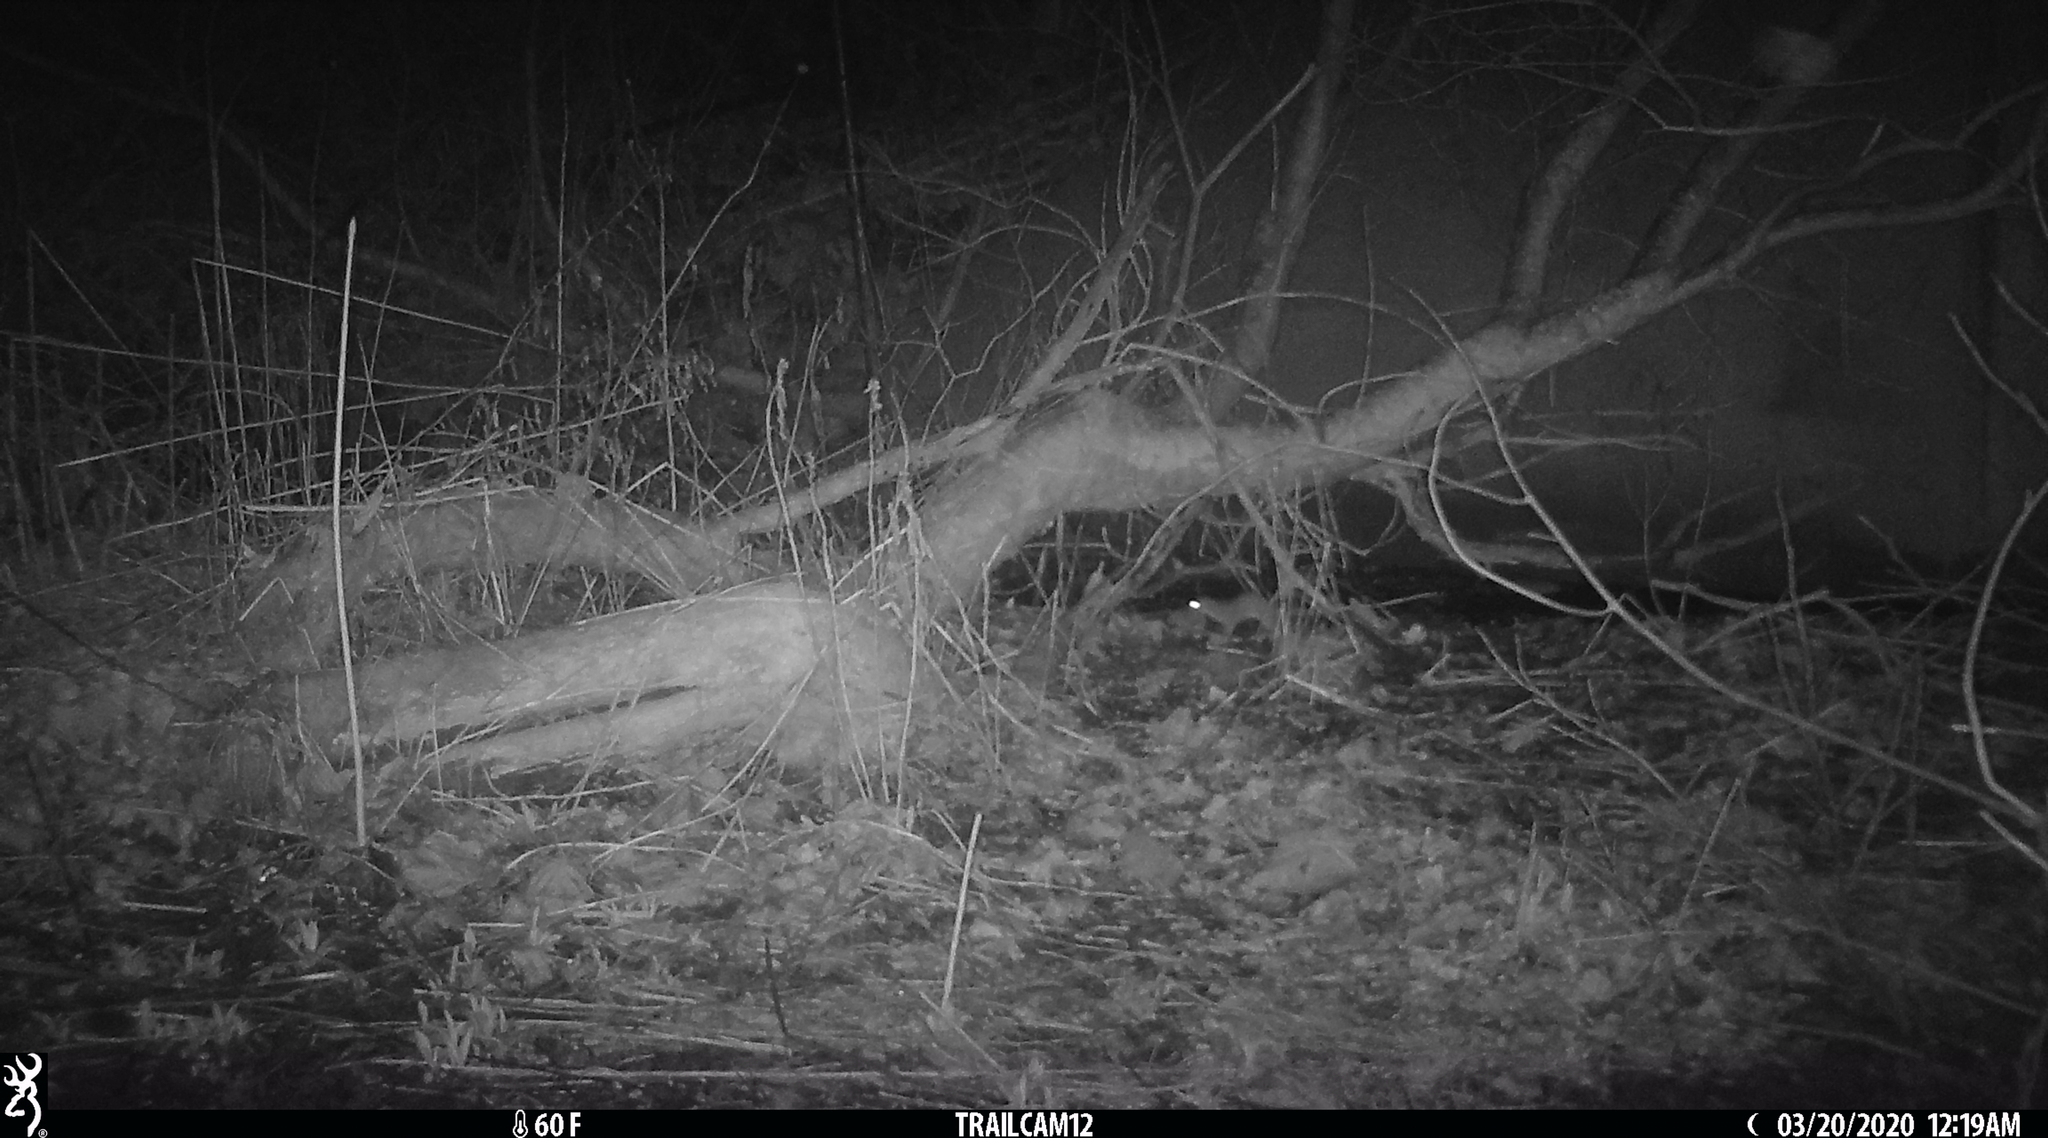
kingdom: Animalia
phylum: Chordata
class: Mammalia
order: Carnivora
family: Mustelidae
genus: Mustela
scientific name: Mustela
